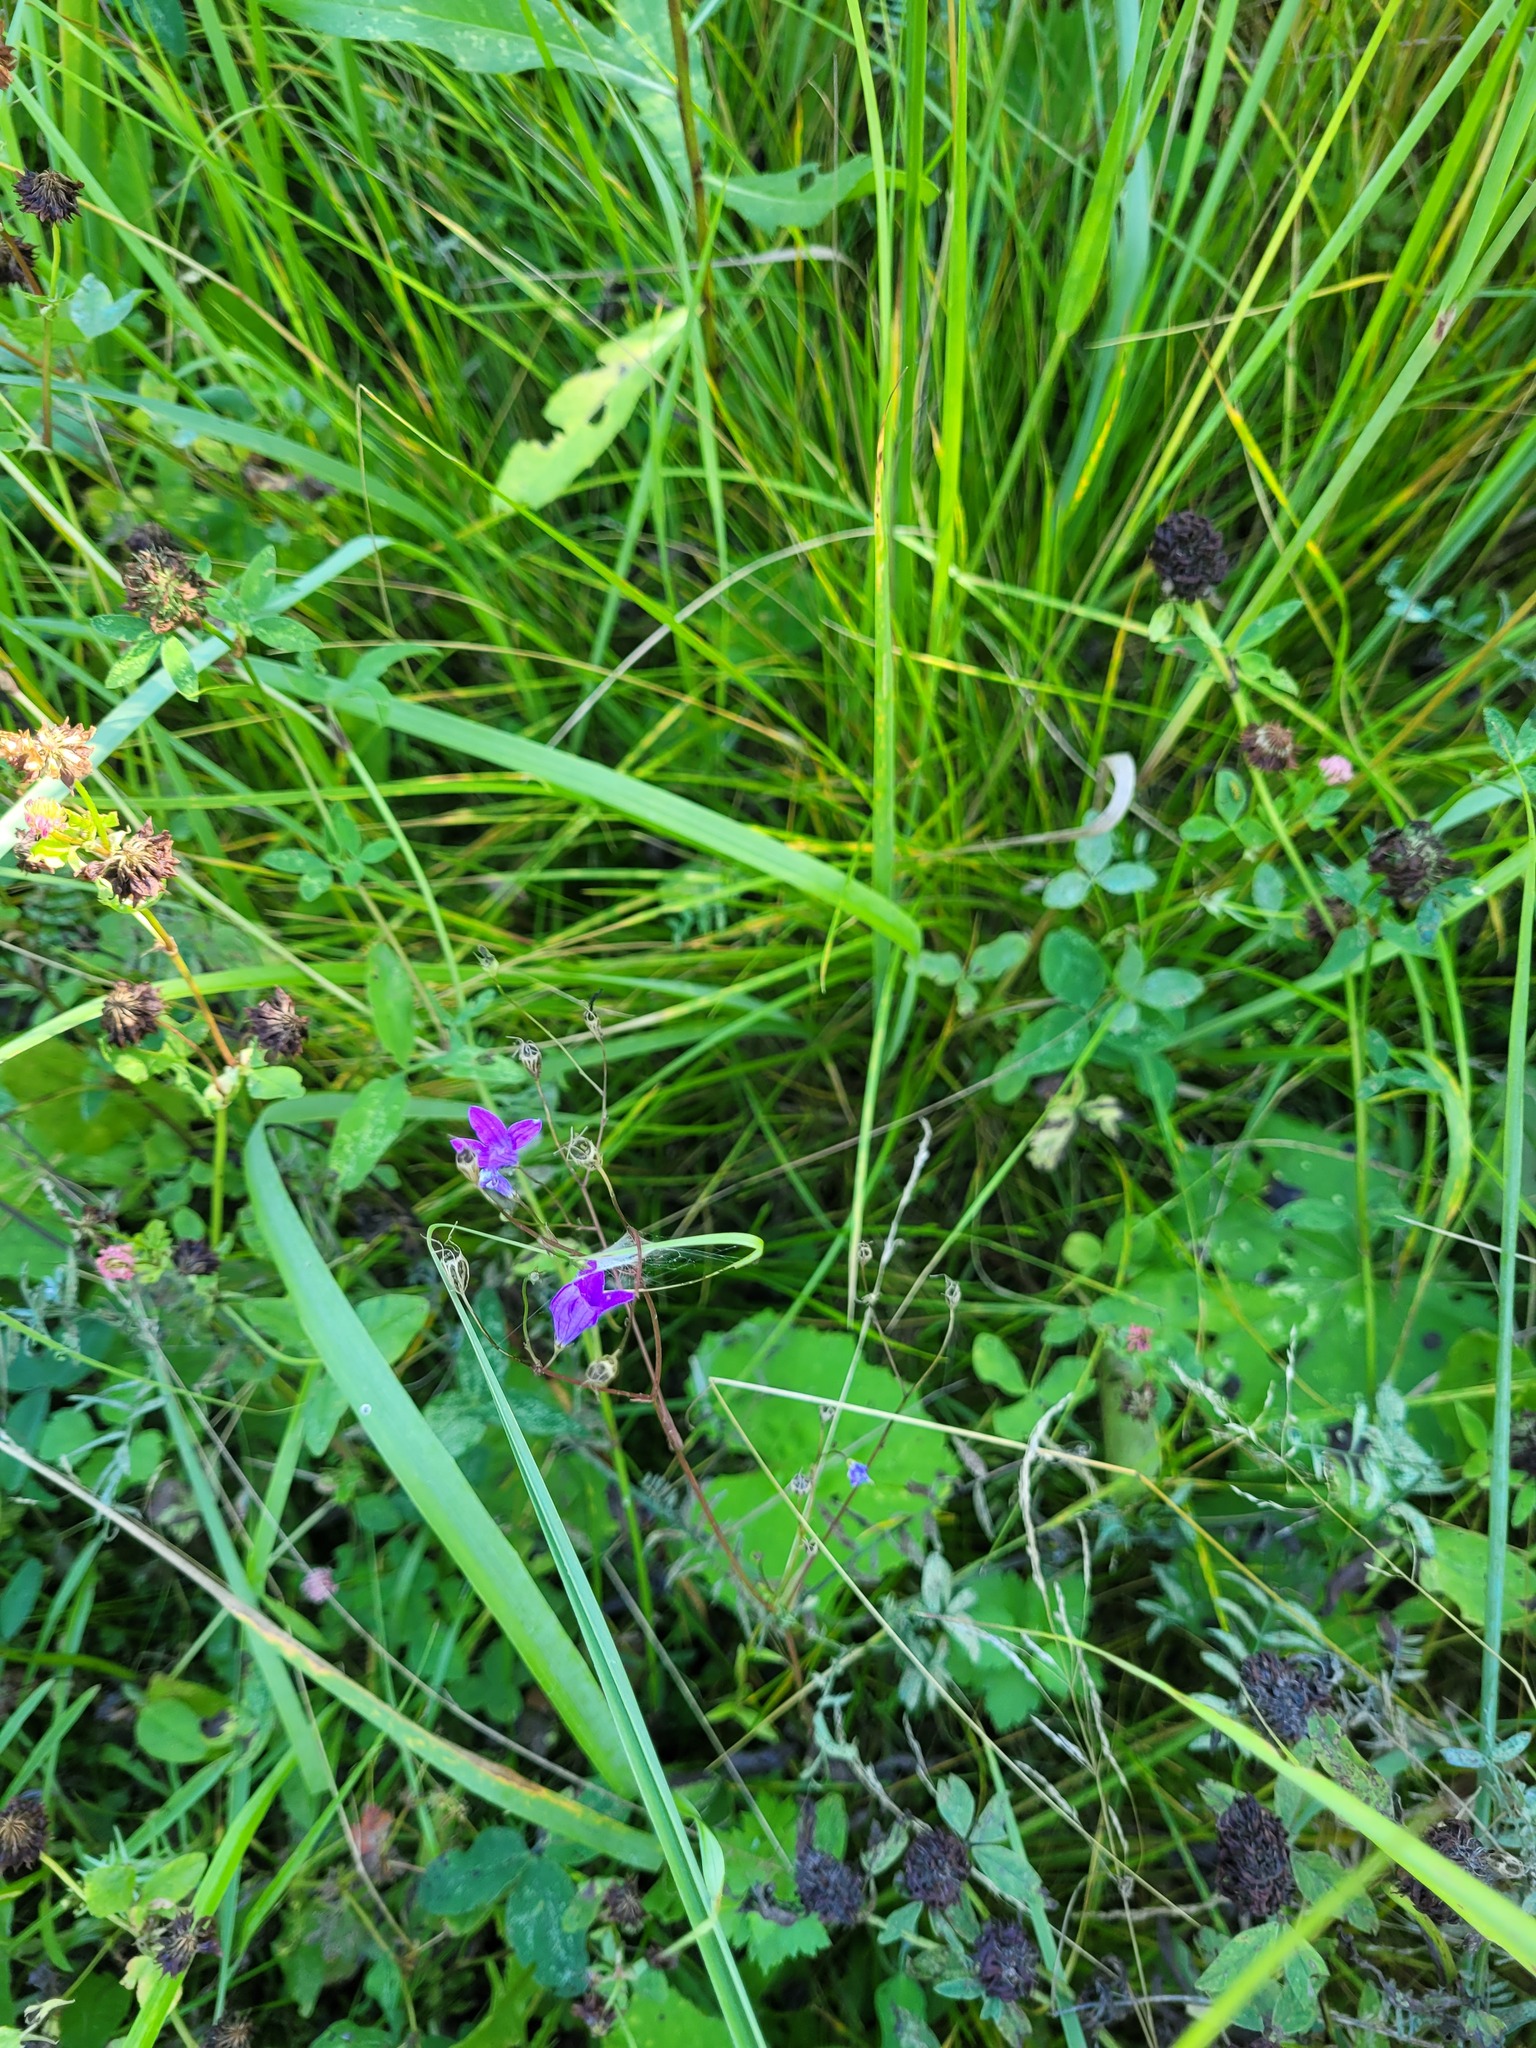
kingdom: Plantae
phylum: Tracheophyta
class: Magnoliopsida
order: Asterales
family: Campanulaceae
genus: Campanula
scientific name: Campanula patula
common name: Spreading bellflower
